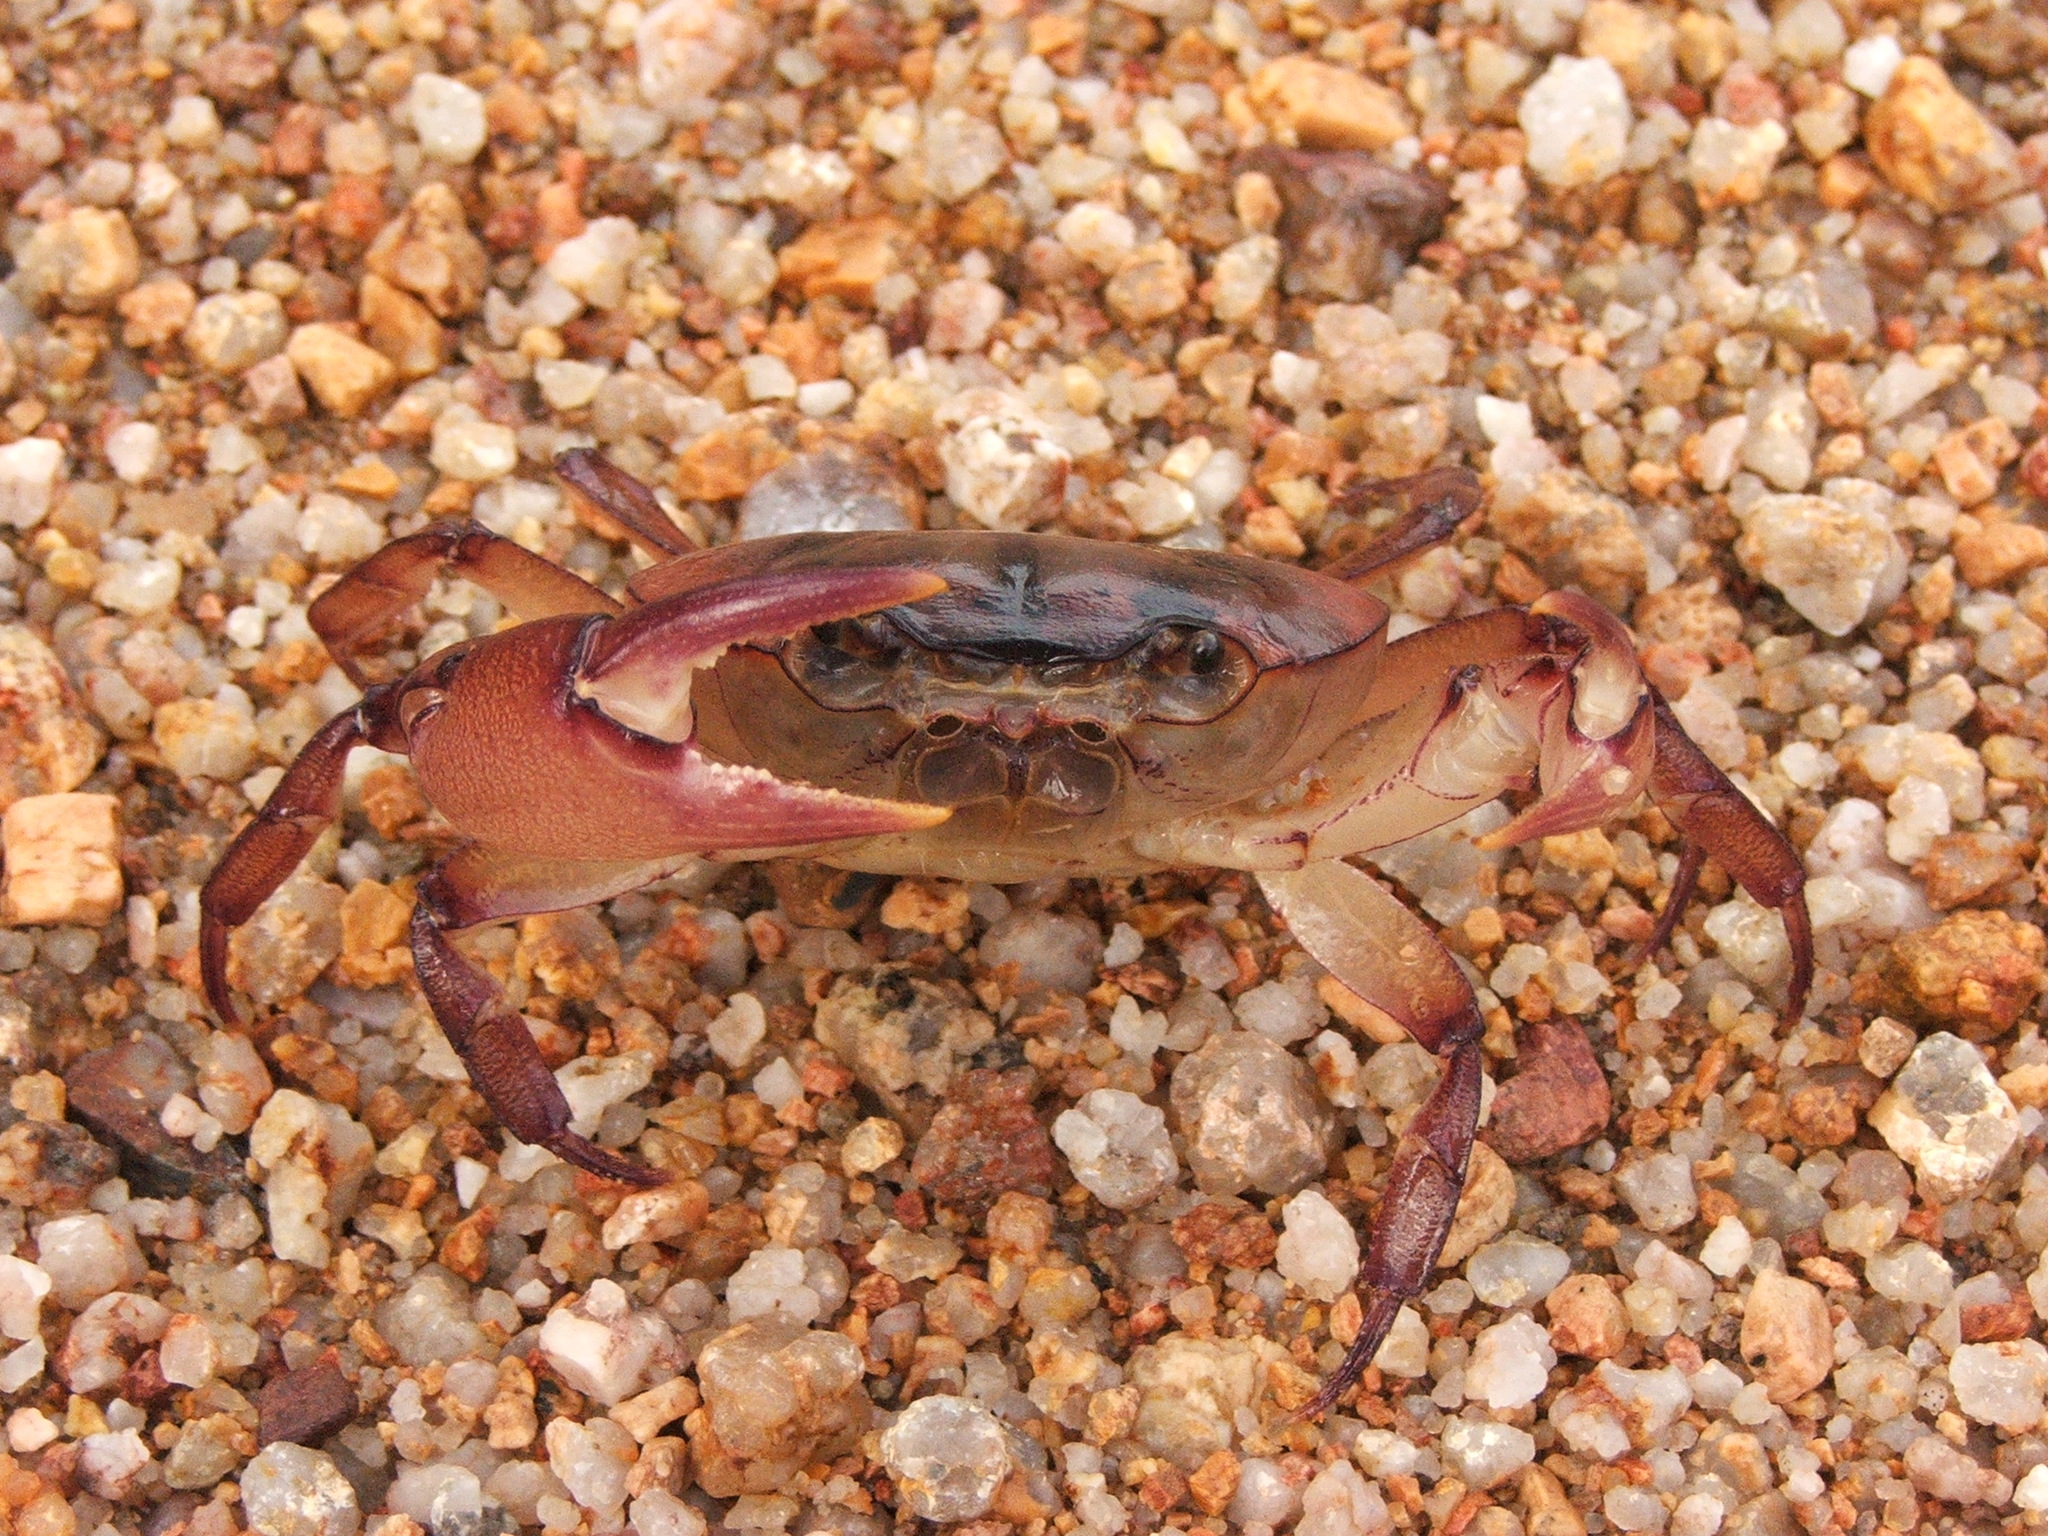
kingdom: Animalia
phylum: Arthropoda
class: Malacostraca
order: Decapoda
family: Gecarcinucidae
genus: Austrothelphusa
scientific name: Austrothelphusa agassizi
